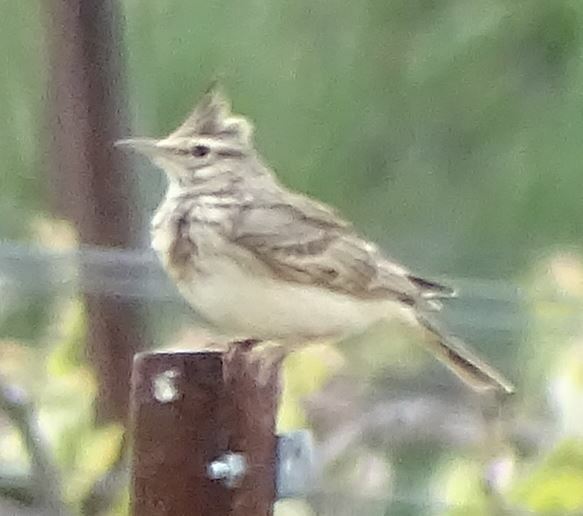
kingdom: Animalia
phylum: Chordata
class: Aves
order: Passeriformes
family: Alaudidae
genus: Galerida
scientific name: Galerida cristata
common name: Crested lark
